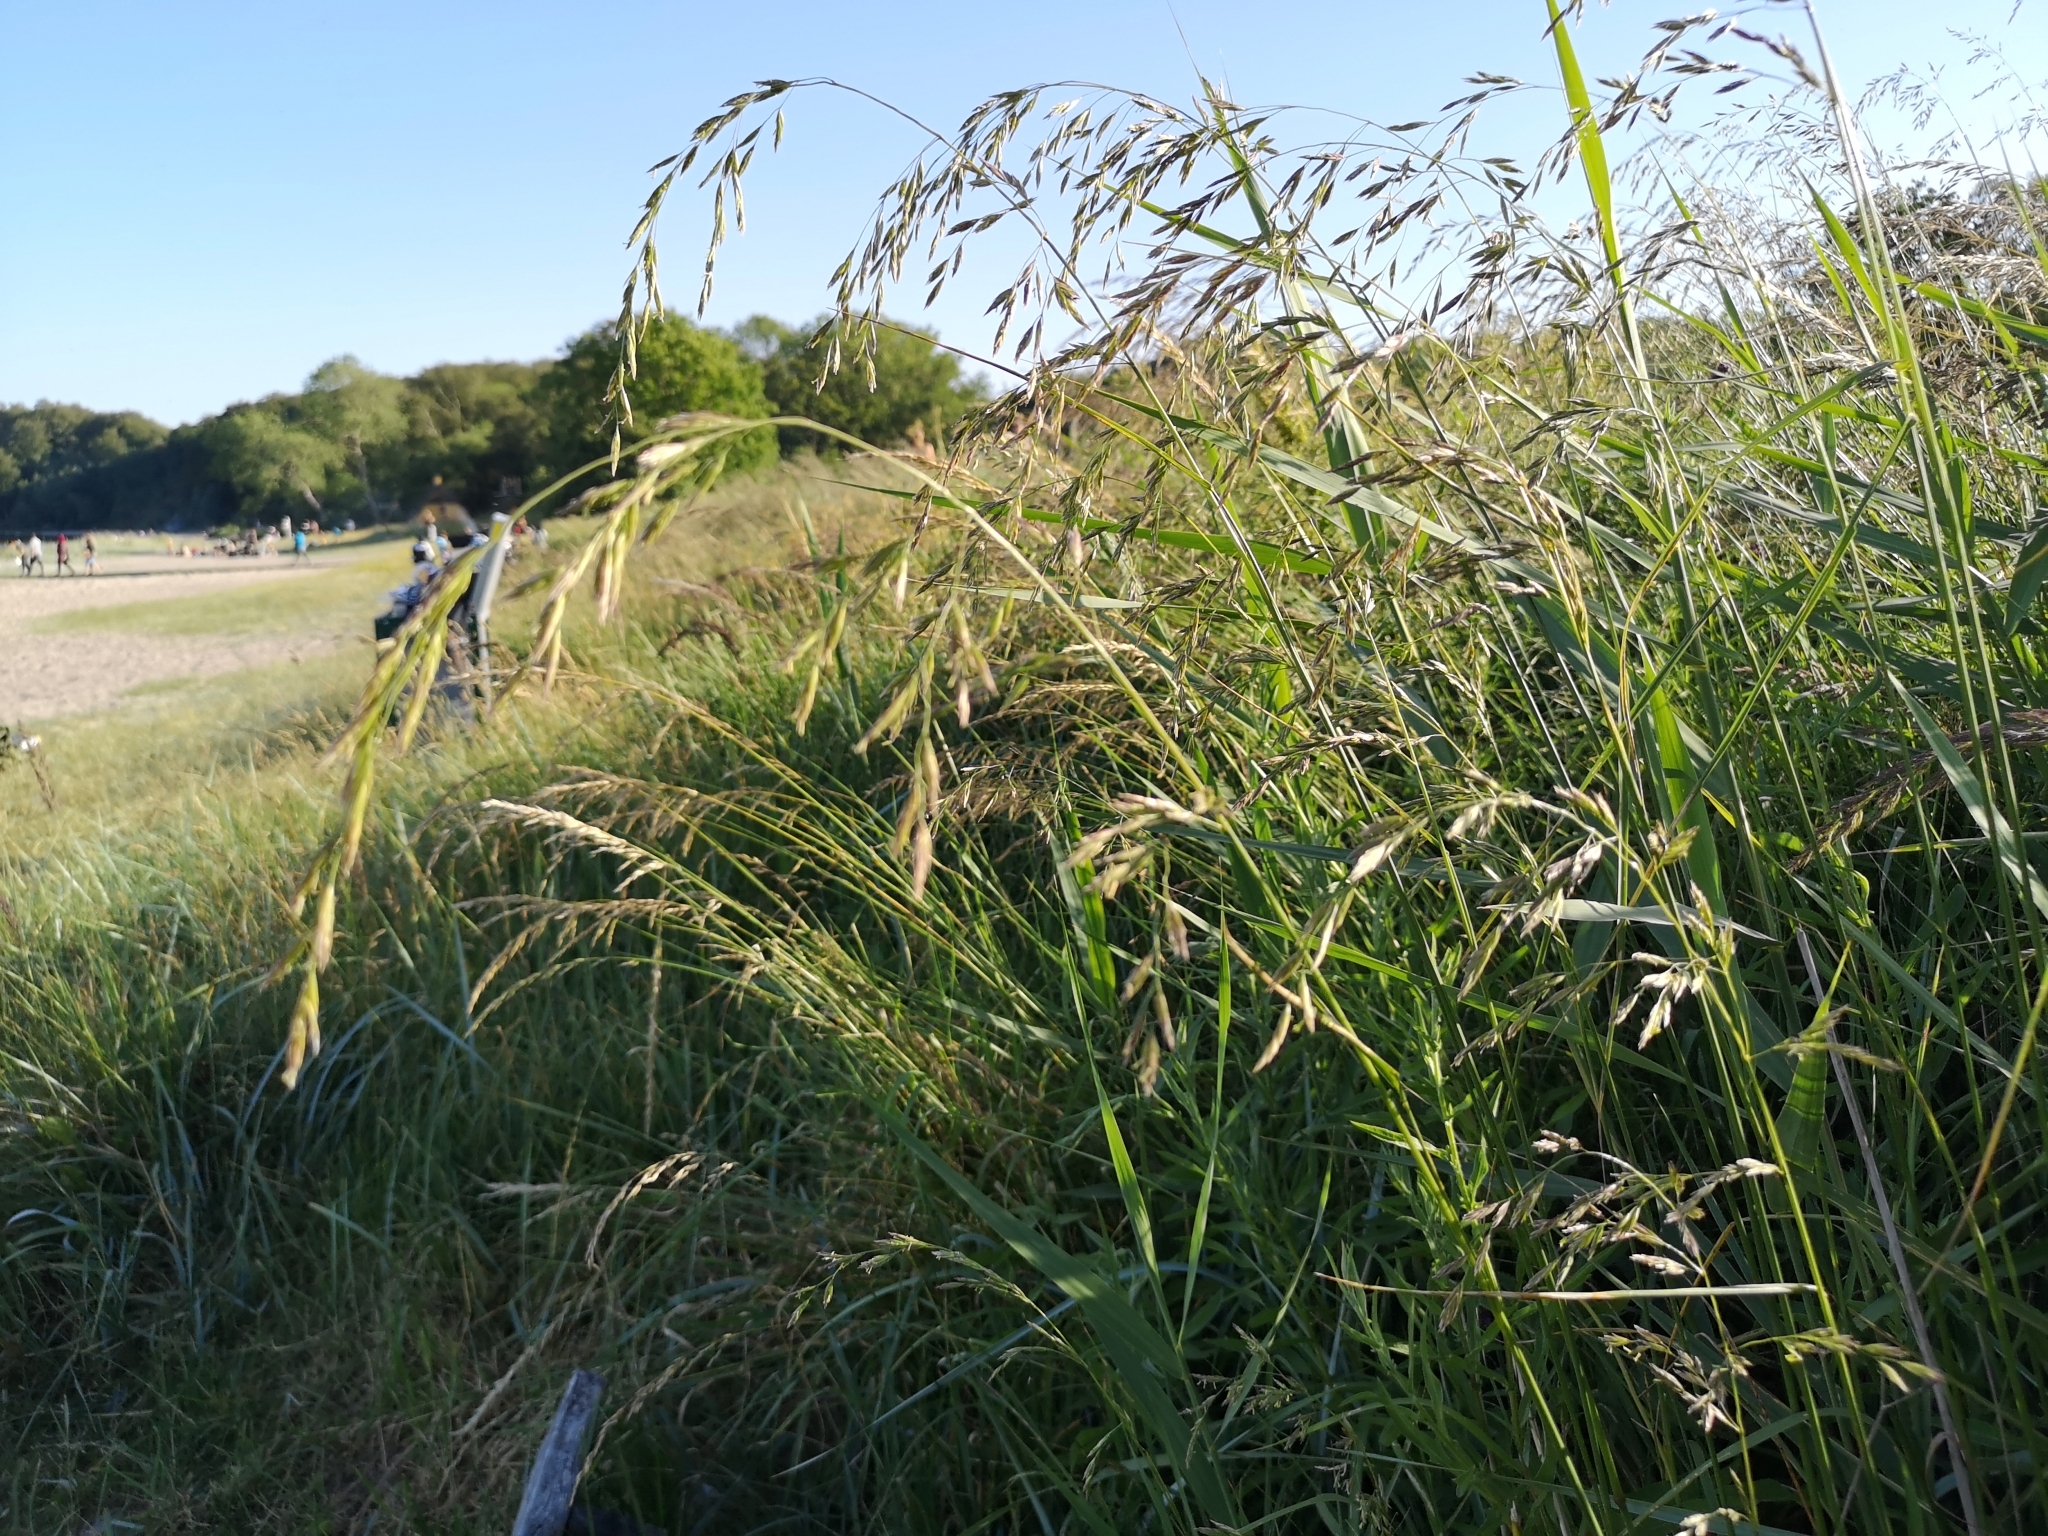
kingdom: Plantae
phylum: Tracheophyta
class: Liliopsida
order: Poales
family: Poaceae
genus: Lolium
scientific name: Lolium arundinaceum
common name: Reed fescue
